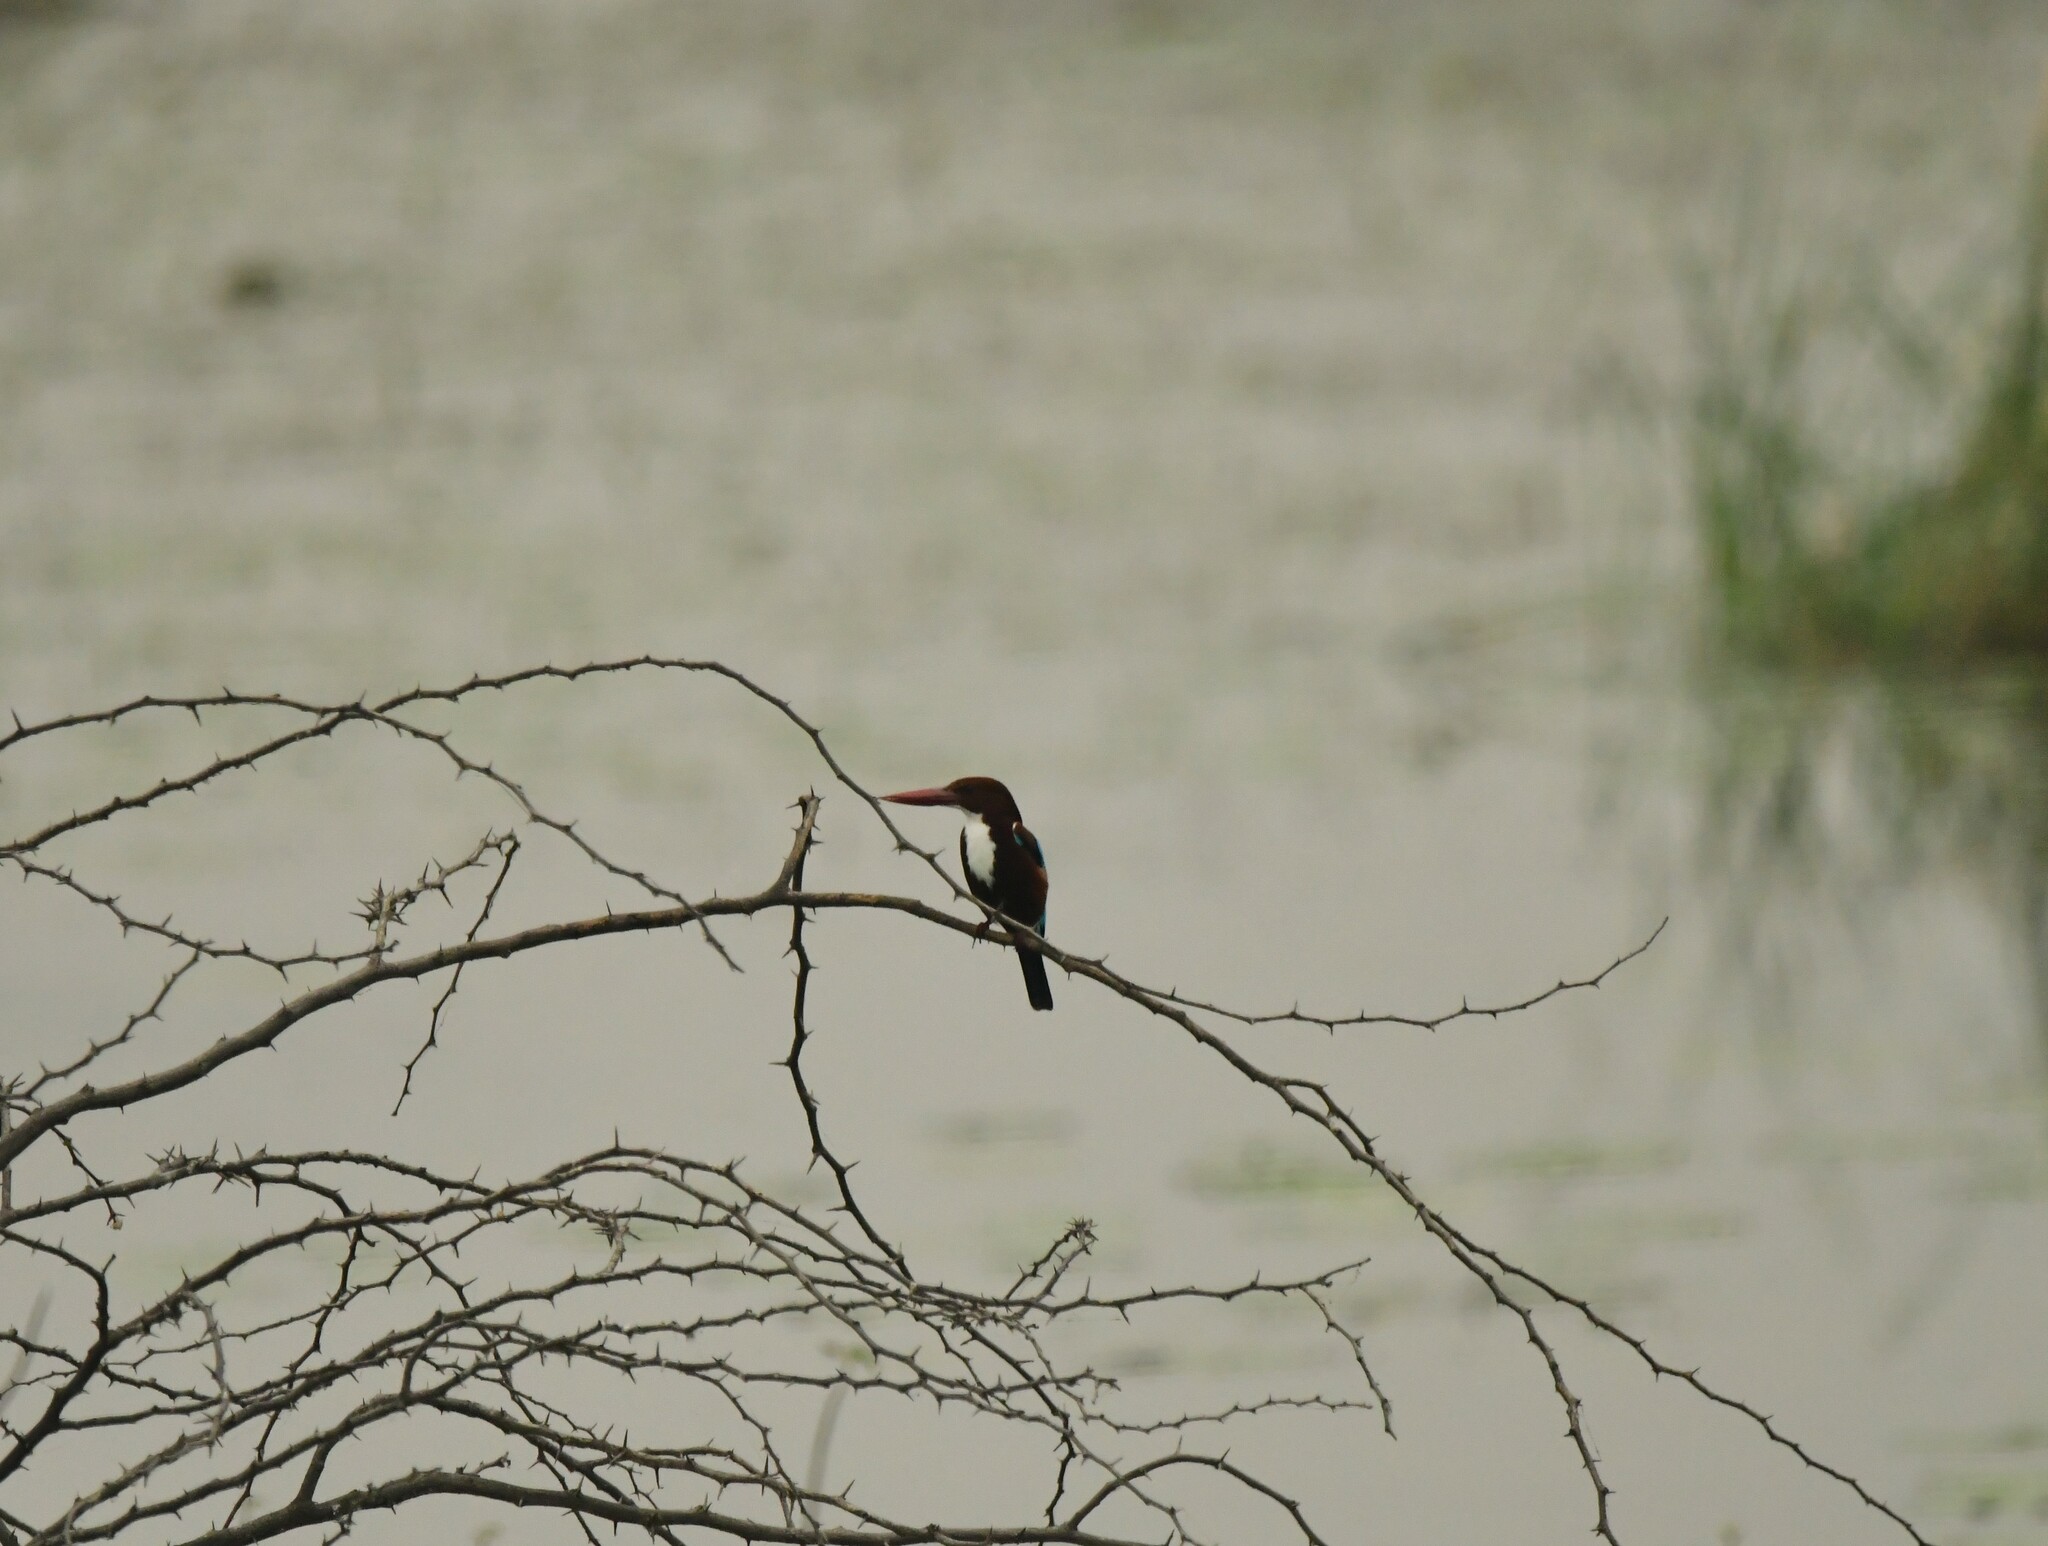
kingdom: Animalia
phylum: Chordata
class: Aves
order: Coraciiformes
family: Alcedinidae
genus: Halcyon
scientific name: Halcyon smyrnensis
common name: White-throated kingfisher
